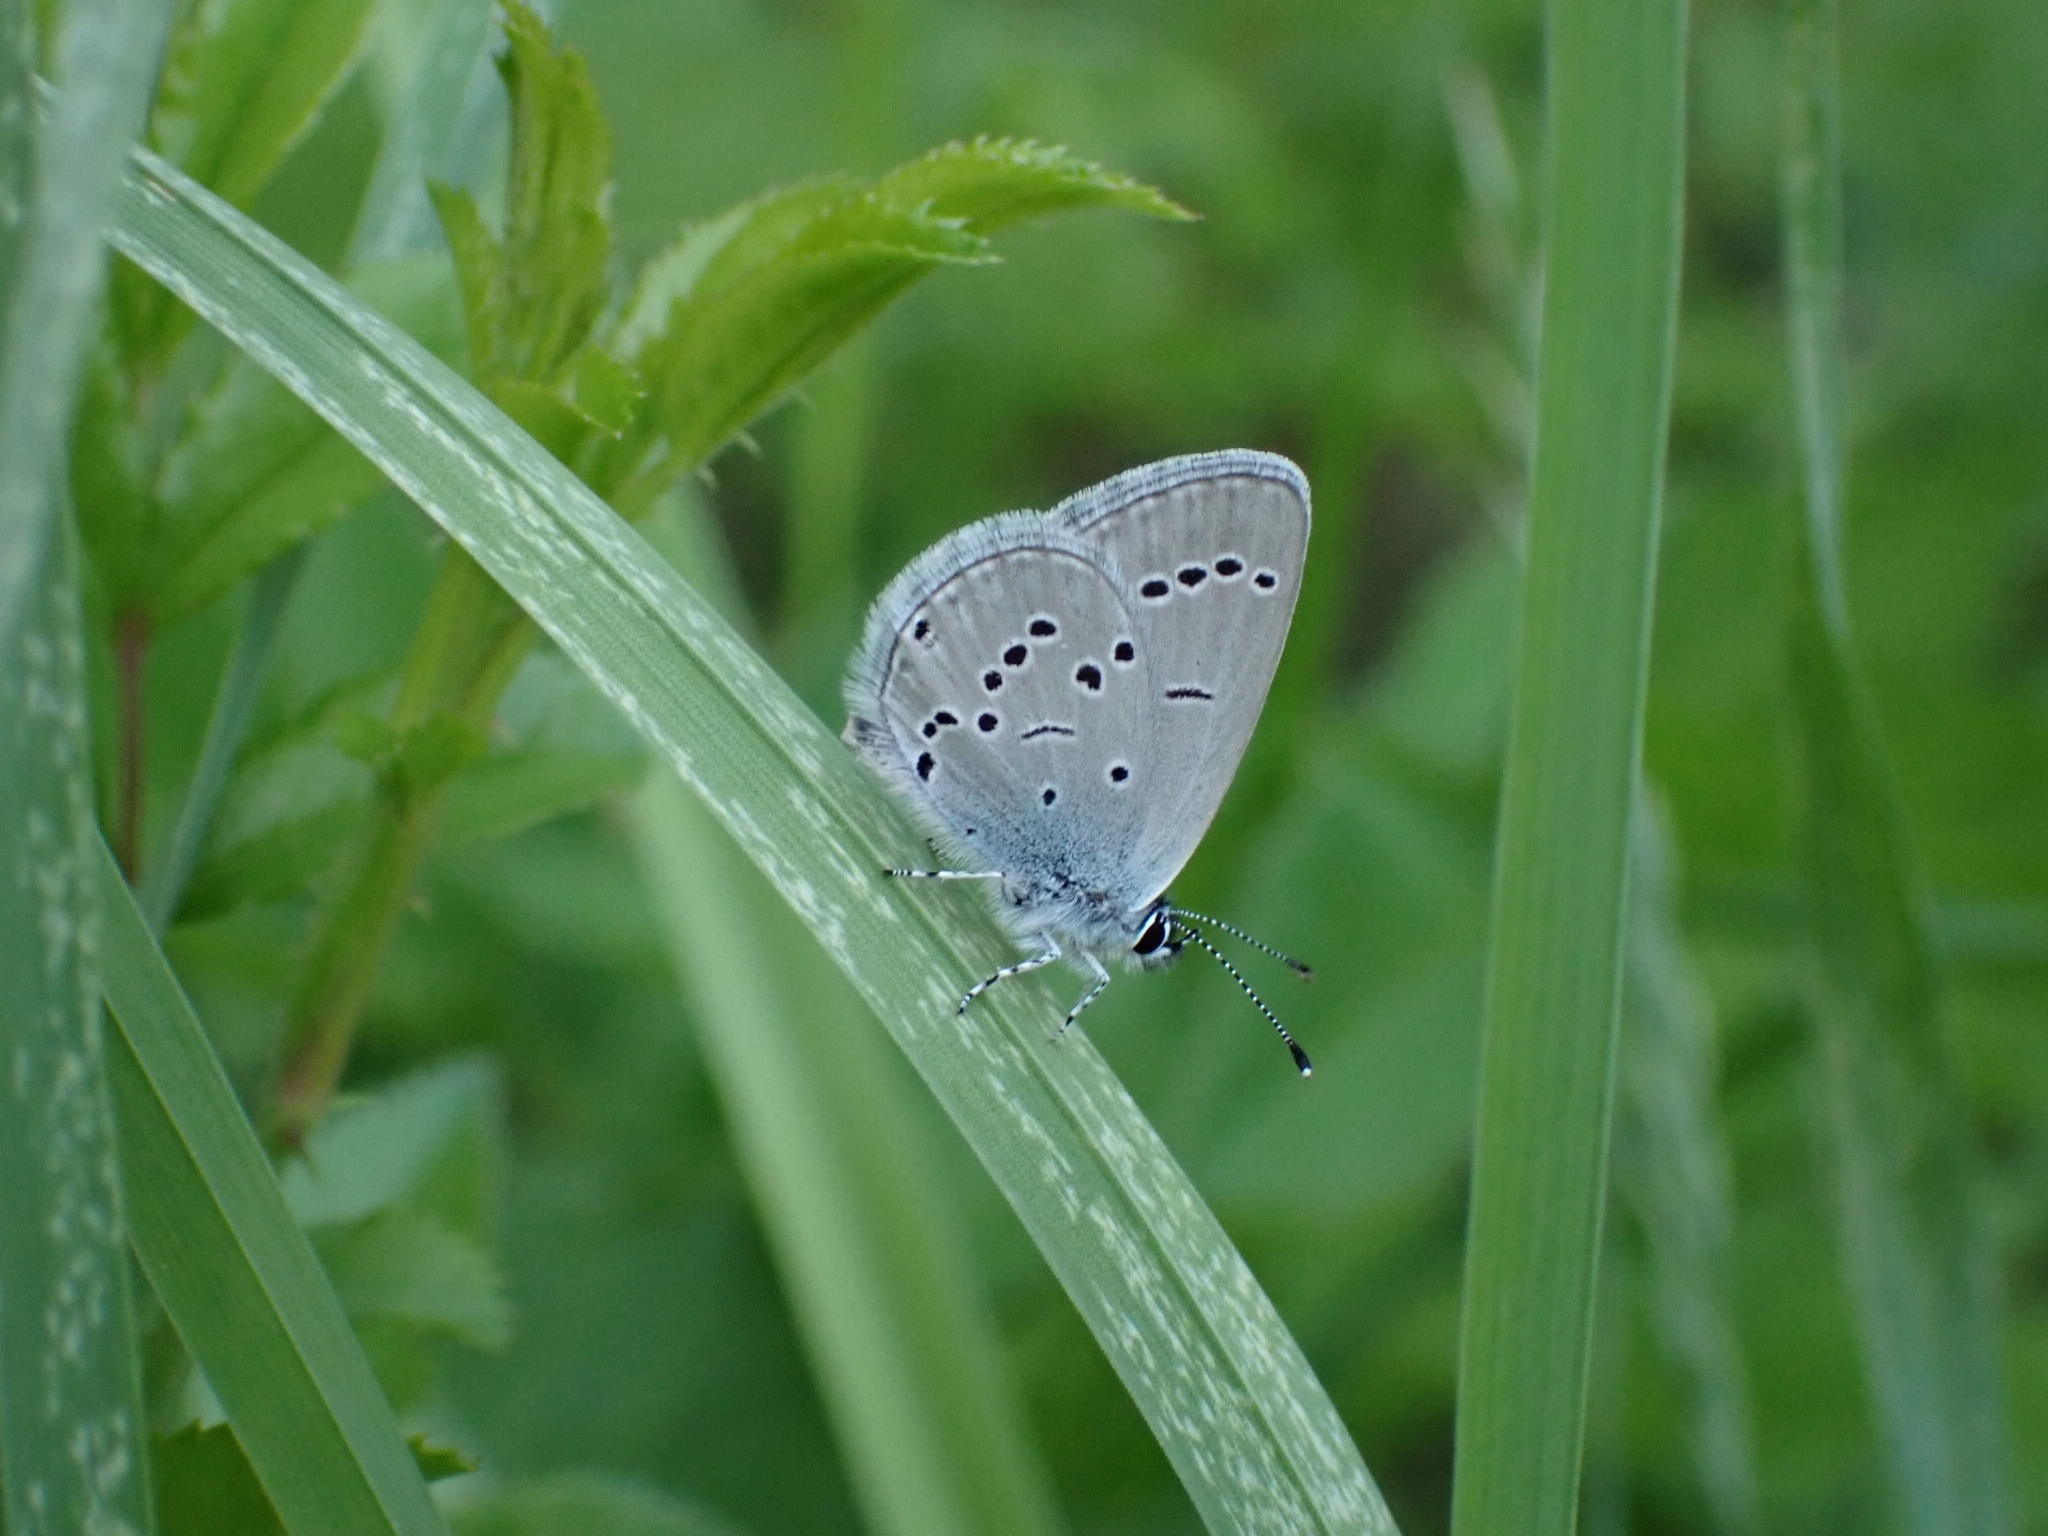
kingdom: Animalia
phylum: Arthropoda
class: Insecta
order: Lepidoptera
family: Lycaenidae
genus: Cupido
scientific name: Cupido minimus
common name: Small blue
